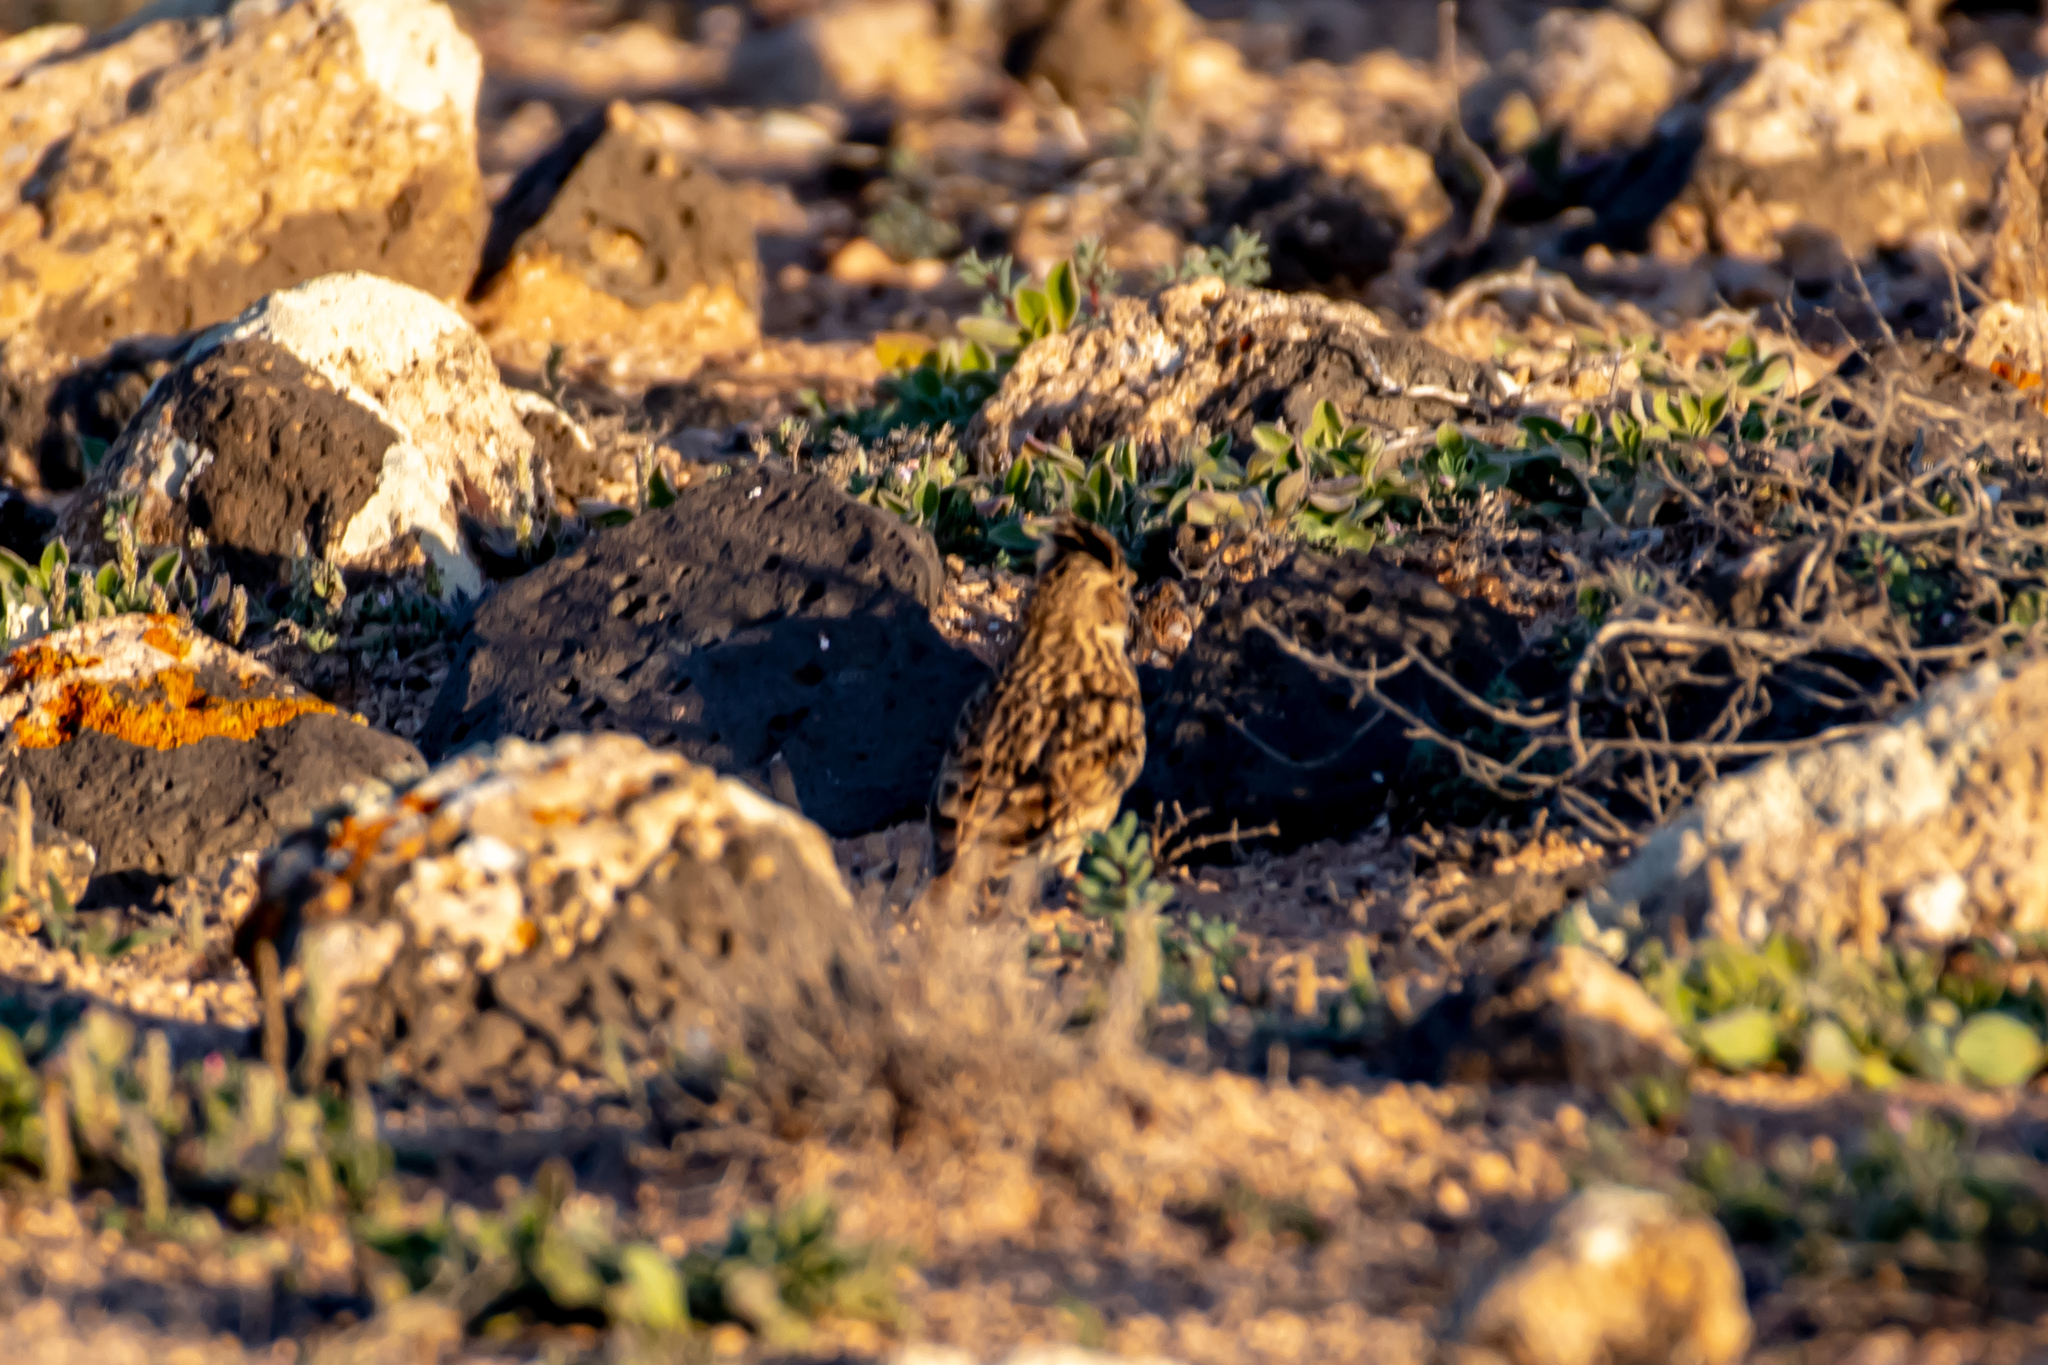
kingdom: Animalia
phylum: Chordata
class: Aves
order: Passeriformes
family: Alaudidae
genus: Calandrella
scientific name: Calandrella rufescens
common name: Lesser short-toed lark
